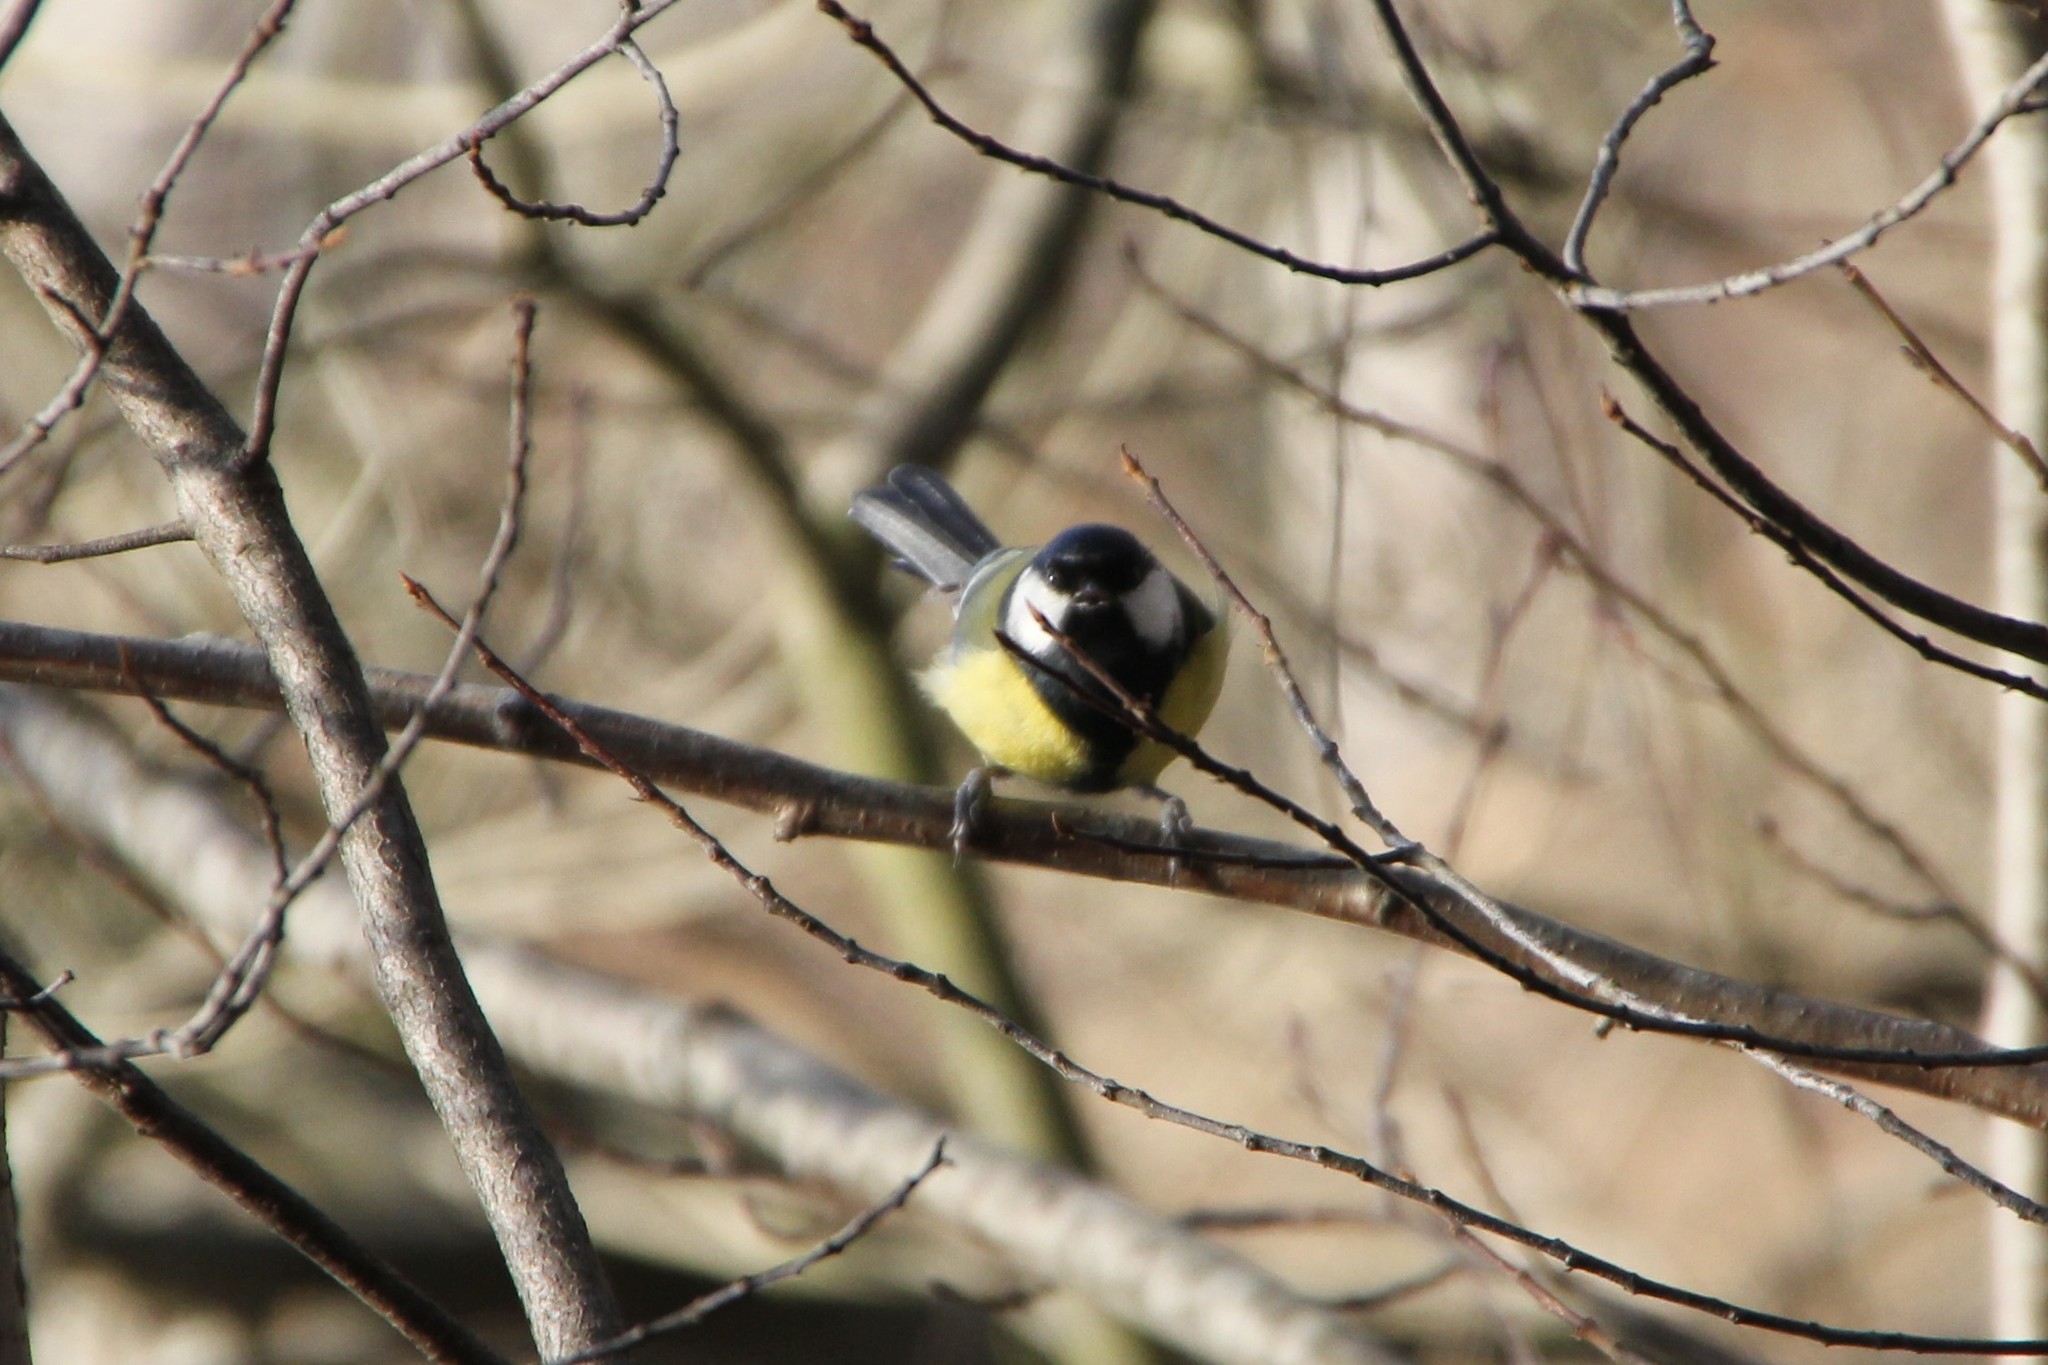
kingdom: Animalia
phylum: Chordata
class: Aves
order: Passeriformes
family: Paridae
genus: Parus
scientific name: Parus major
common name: Great tit
